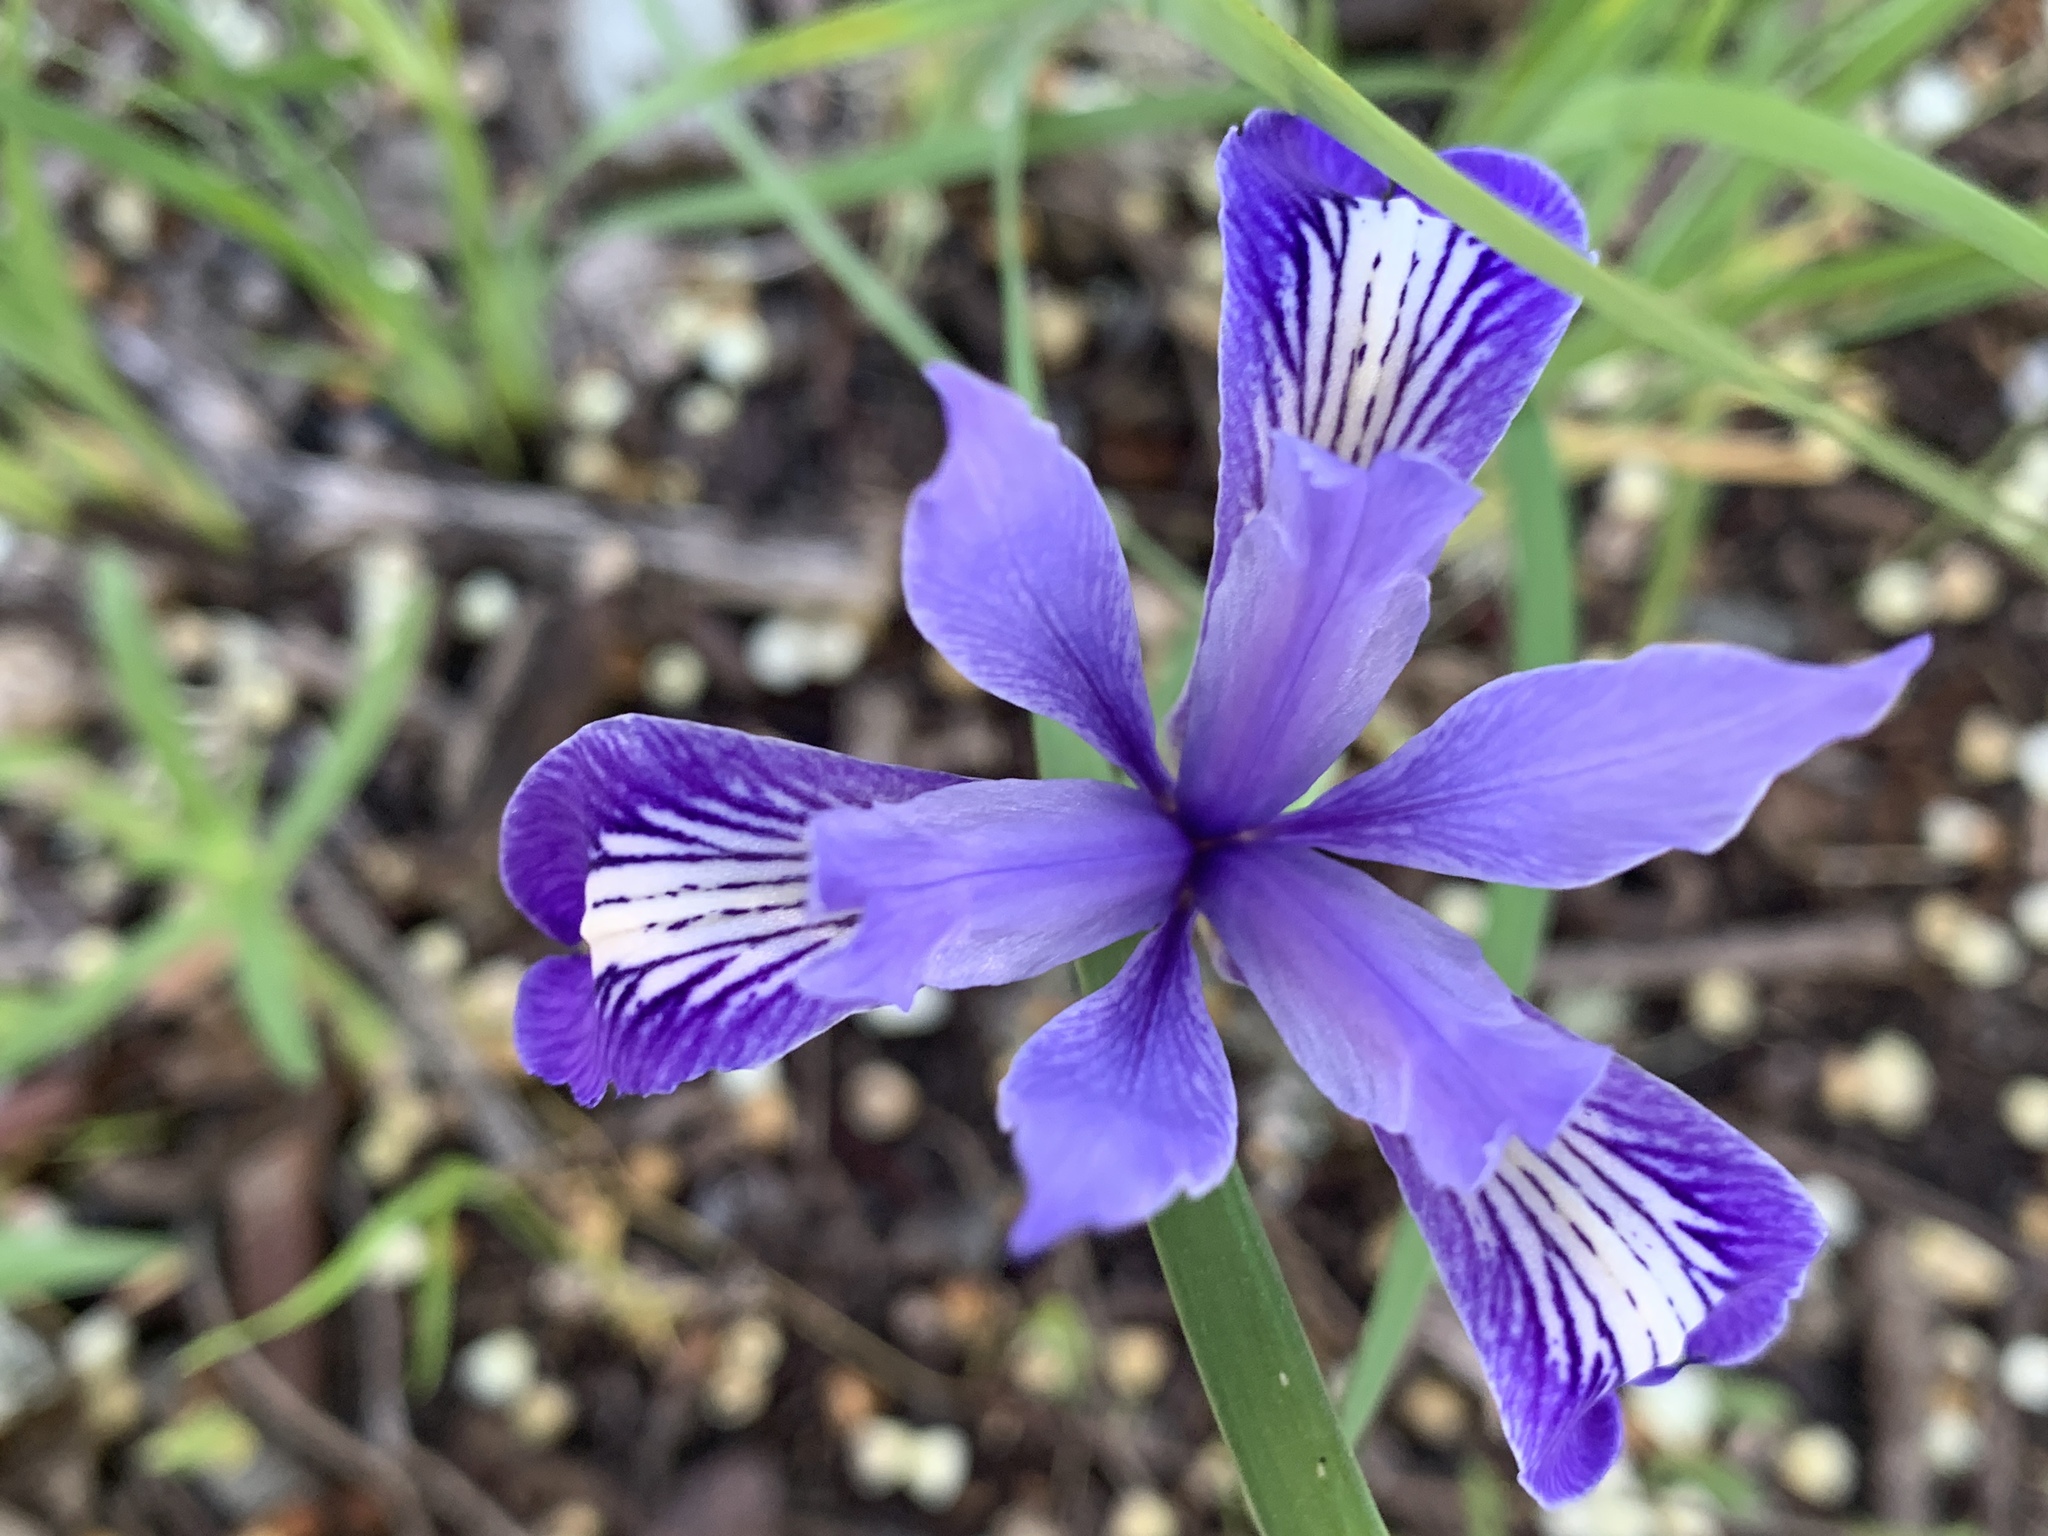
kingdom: Plantae
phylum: Tracheophyta
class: Liliopsida
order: Asparagales
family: Iridaceae
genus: Iris
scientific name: Iris macrosiphon
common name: Ground iris
